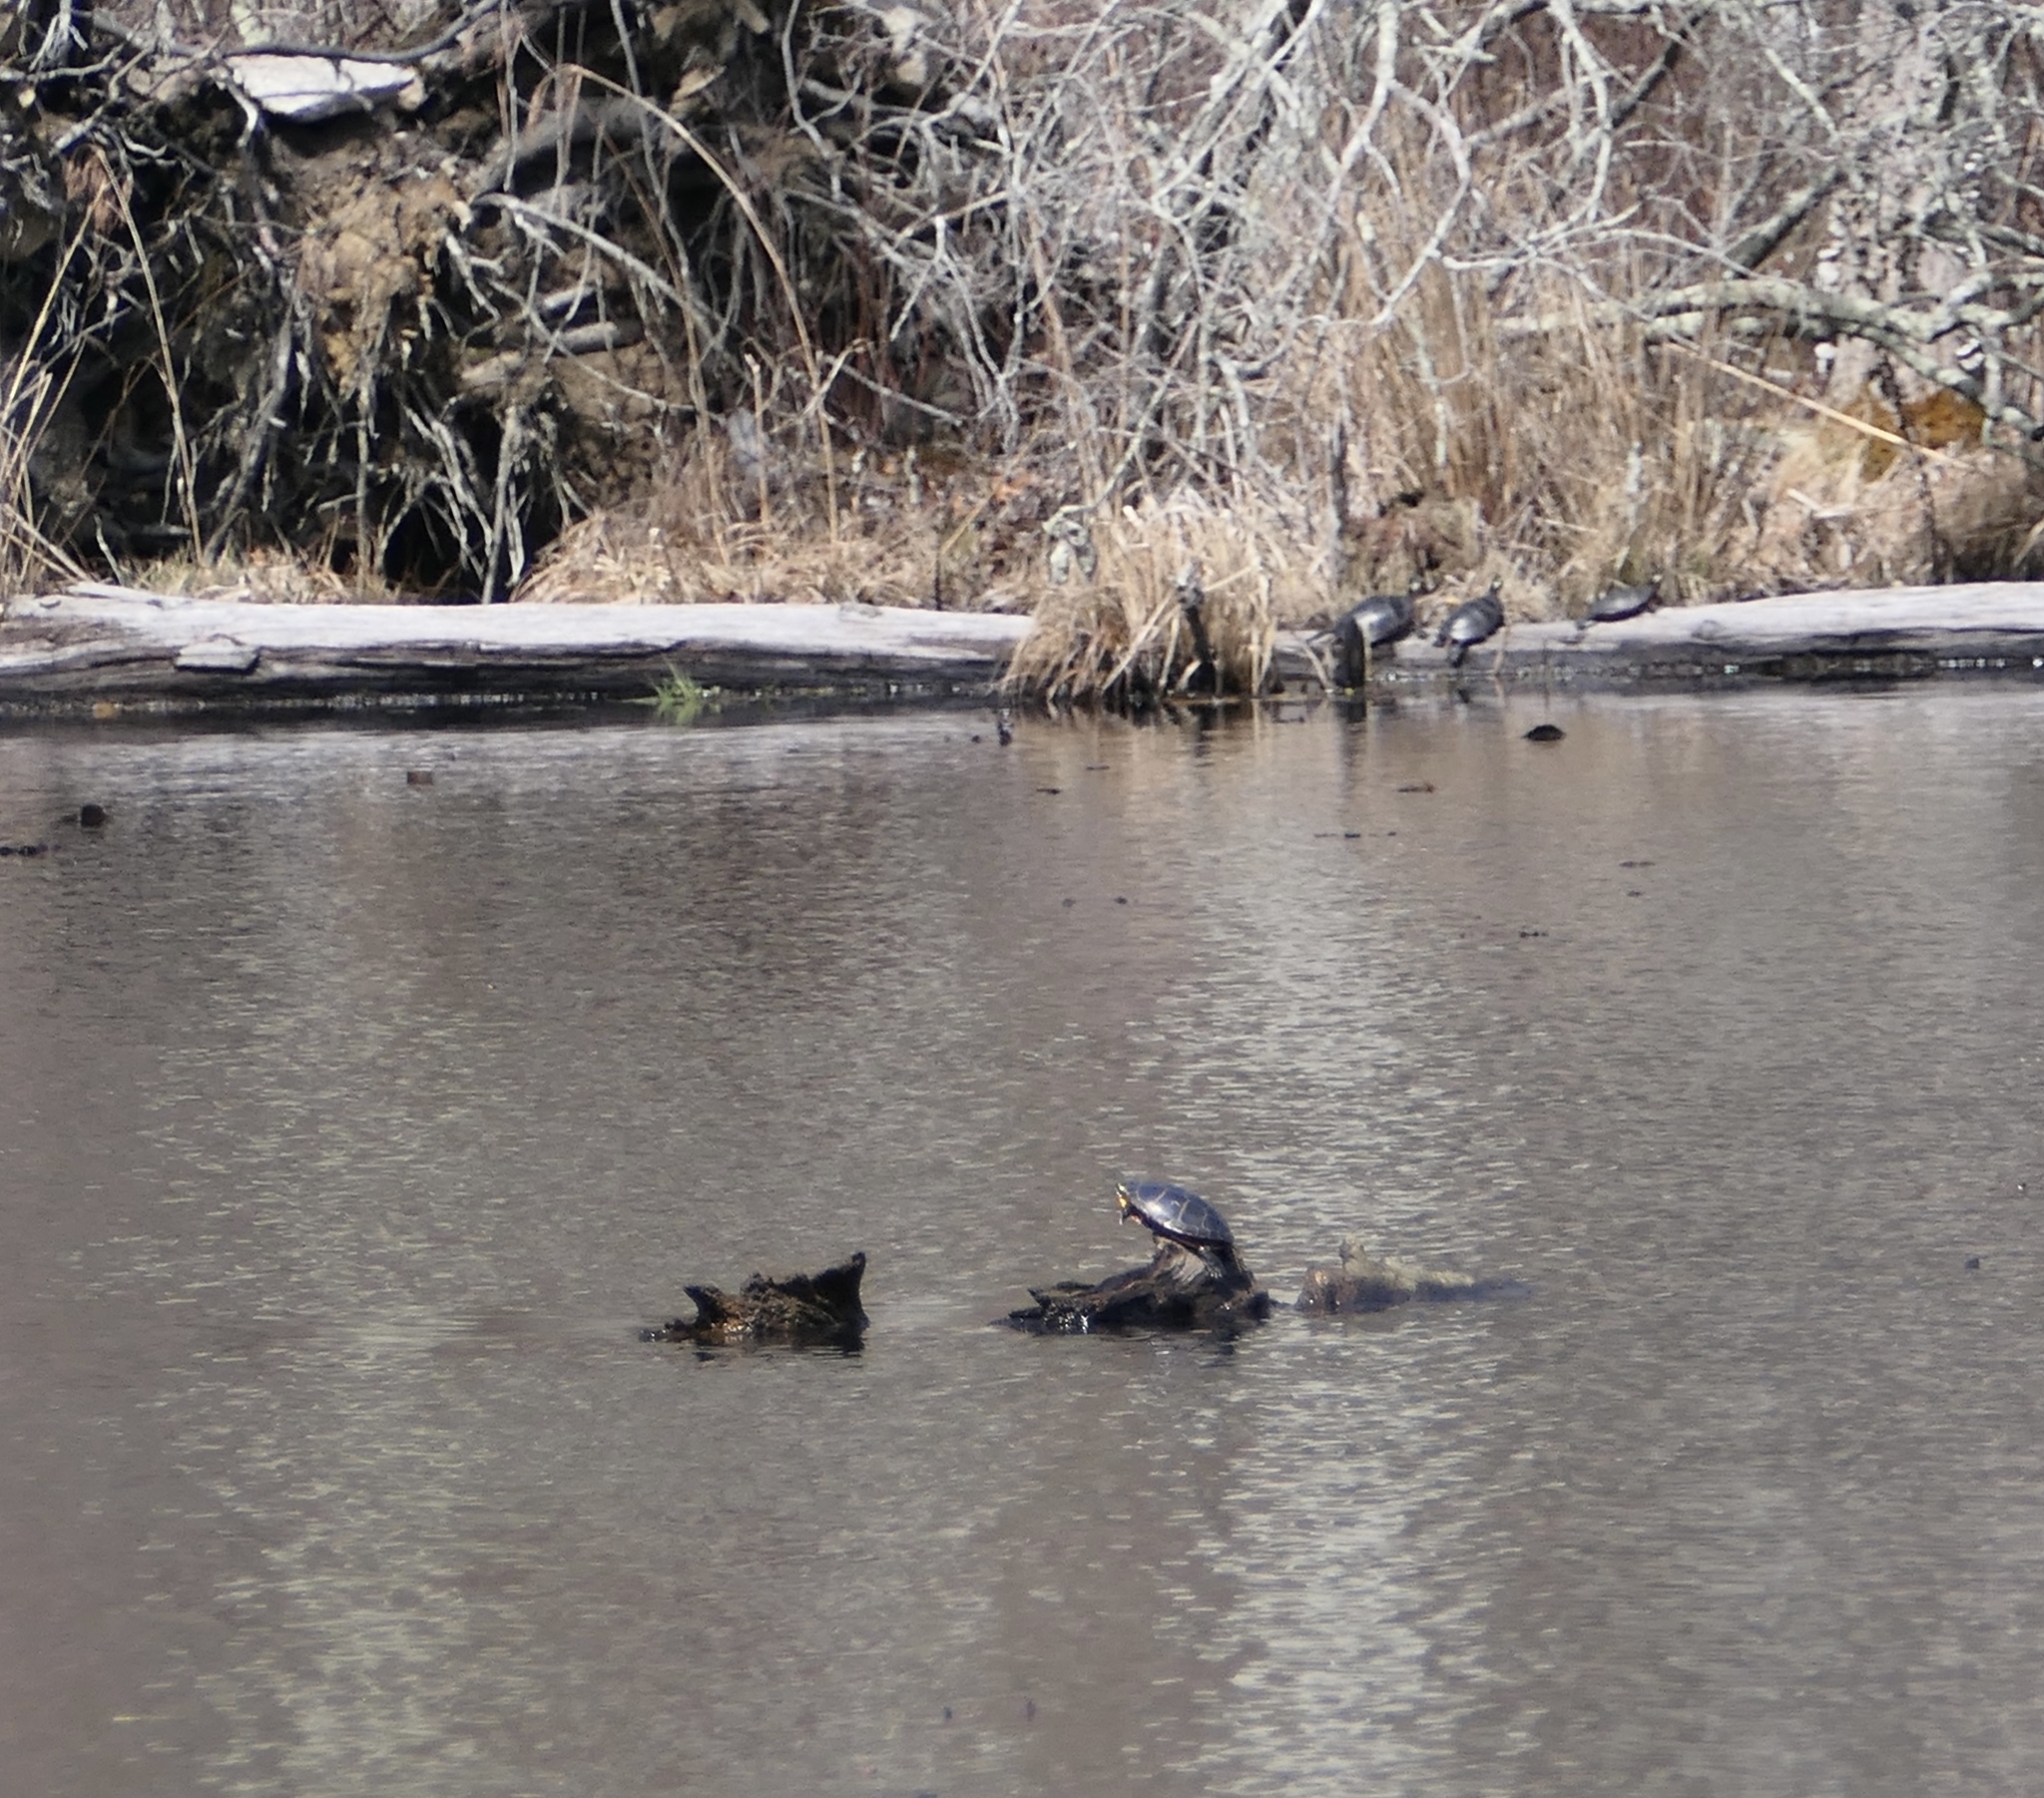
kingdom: Animalia
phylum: Chordata
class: Testudines
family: Emydidae
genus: Chrysemys
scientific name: Chrysemys picta
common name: Painted turtle
